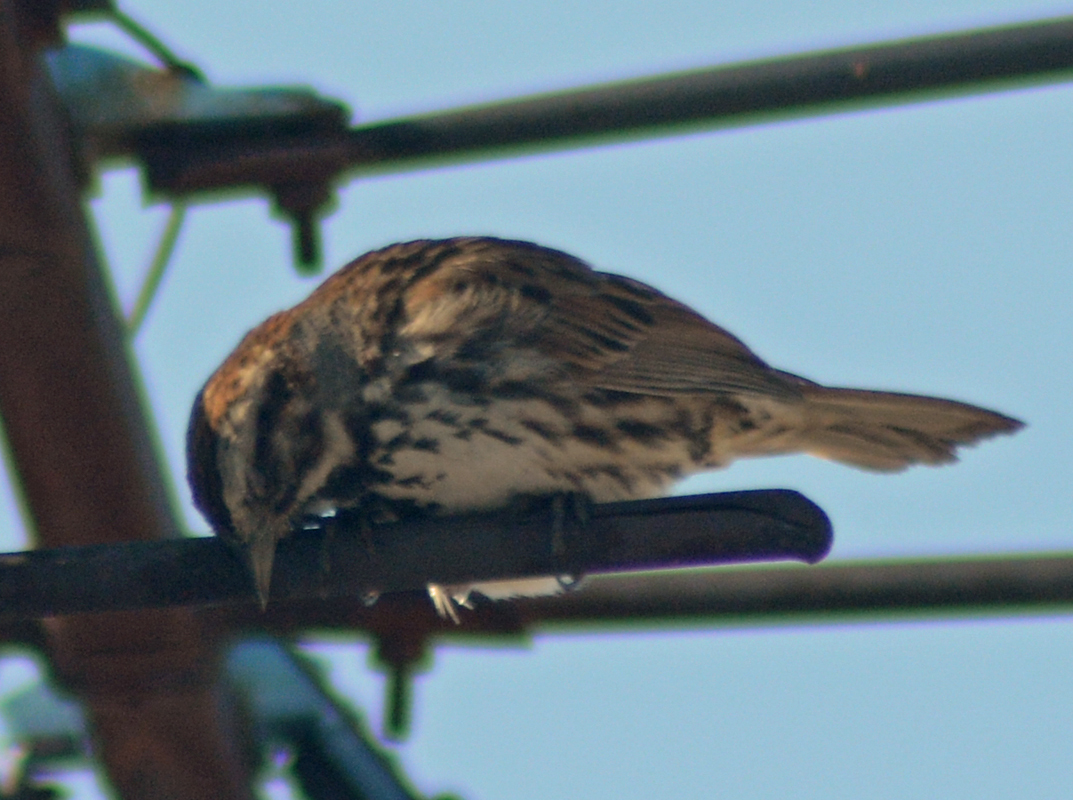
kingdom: Animalia
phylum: Chordata
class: Aves
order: Passeriformes
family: Passerellidae
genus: Melospiza
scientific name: Melospiza melodia
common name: Song sparrow
